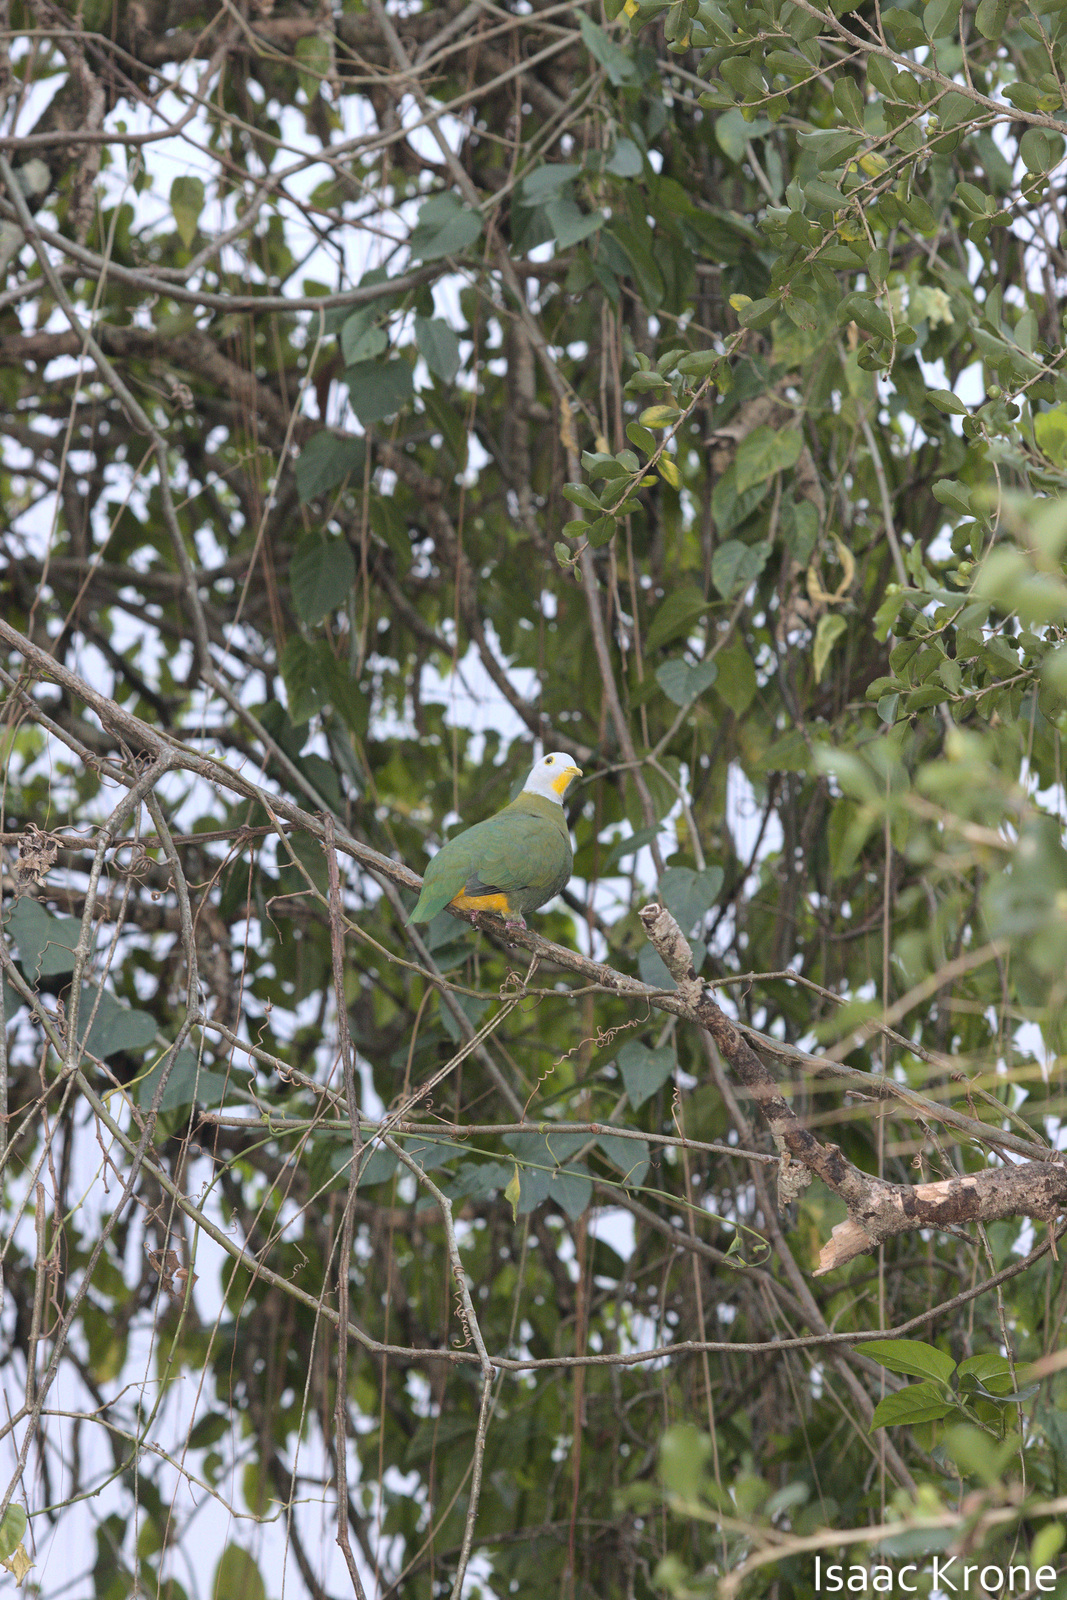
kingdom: Animalia
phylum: Chordata
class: Aves
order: Columbiformes
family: Columbidae
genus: Ptilinopus
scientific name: Ptilinopus melanospilus
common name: Black-naped fruit dove
